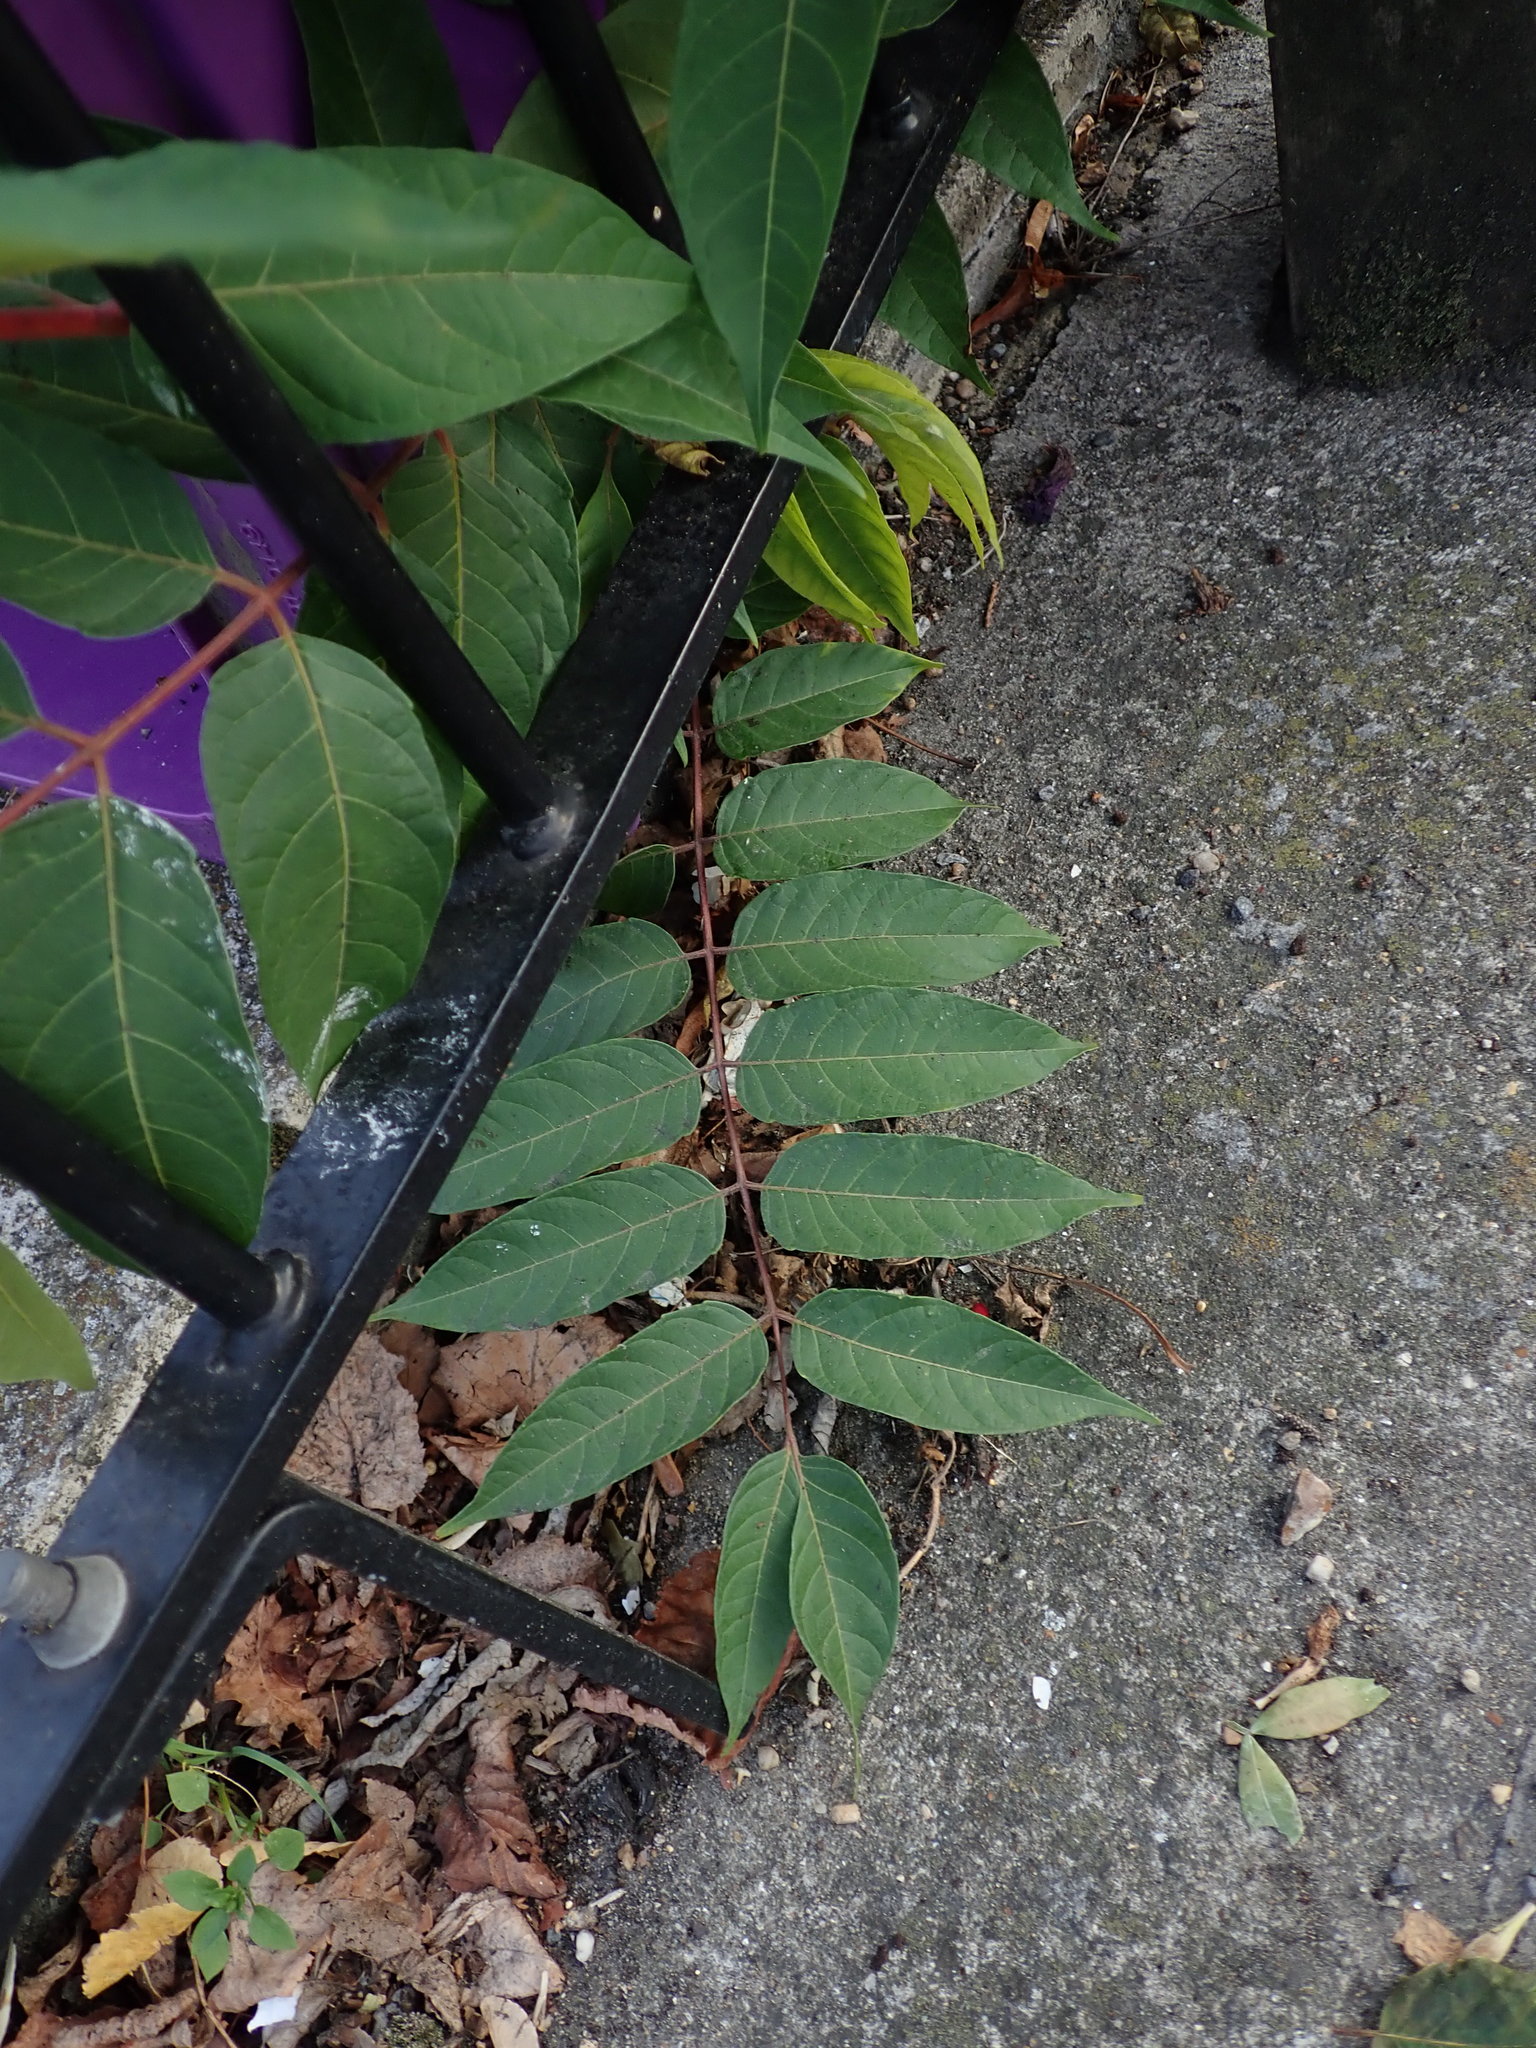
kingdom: Plantae
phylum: Tracheophyta
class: Magnoliopsida
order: Sapindales
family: Simaroubaceae
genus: Ailanthus
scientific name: Ailanthus altissima
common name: Tree-of-heaven
